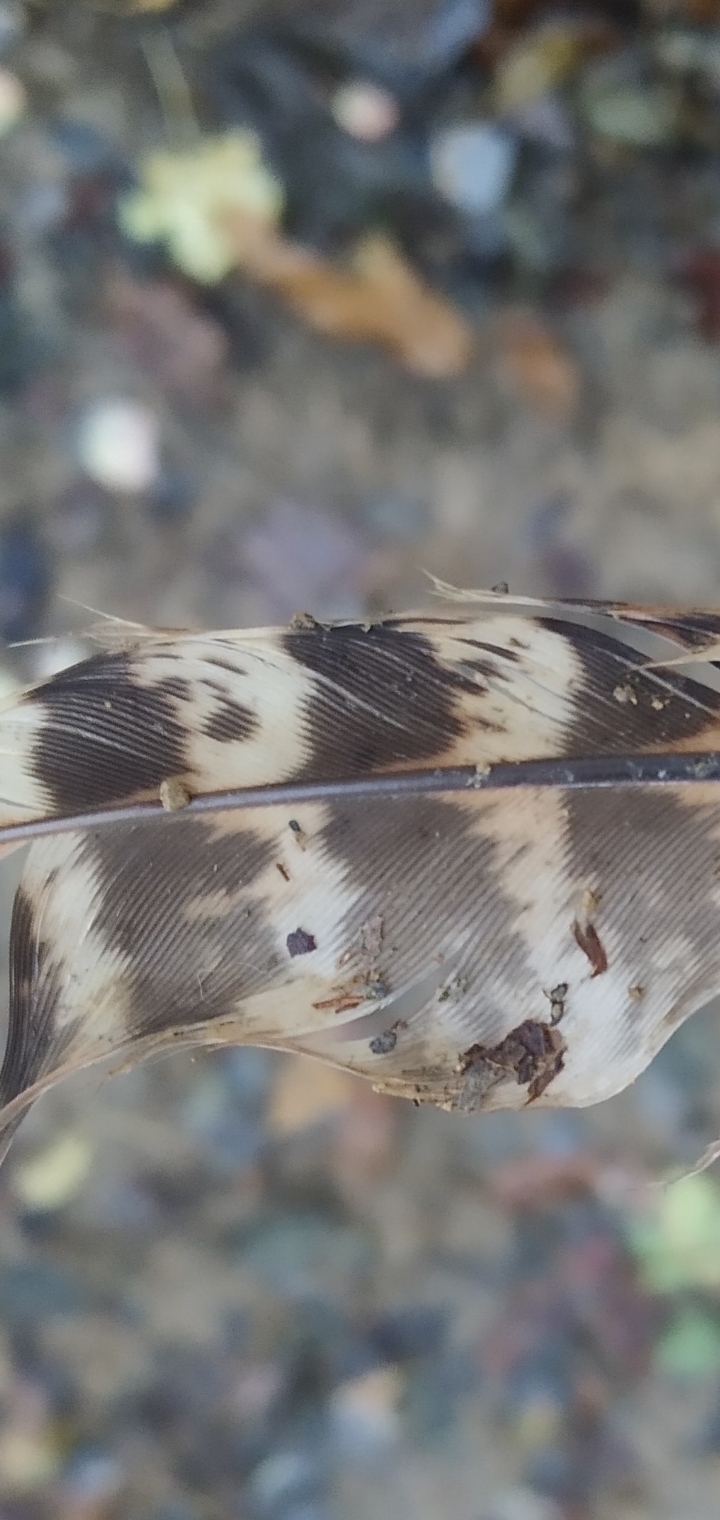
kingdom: Animalia
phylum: Chordata
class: Aves
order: Galliformes
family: Phasianidae
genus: Phasianus
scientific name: Phasianus colchicus
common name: Common pheasant
